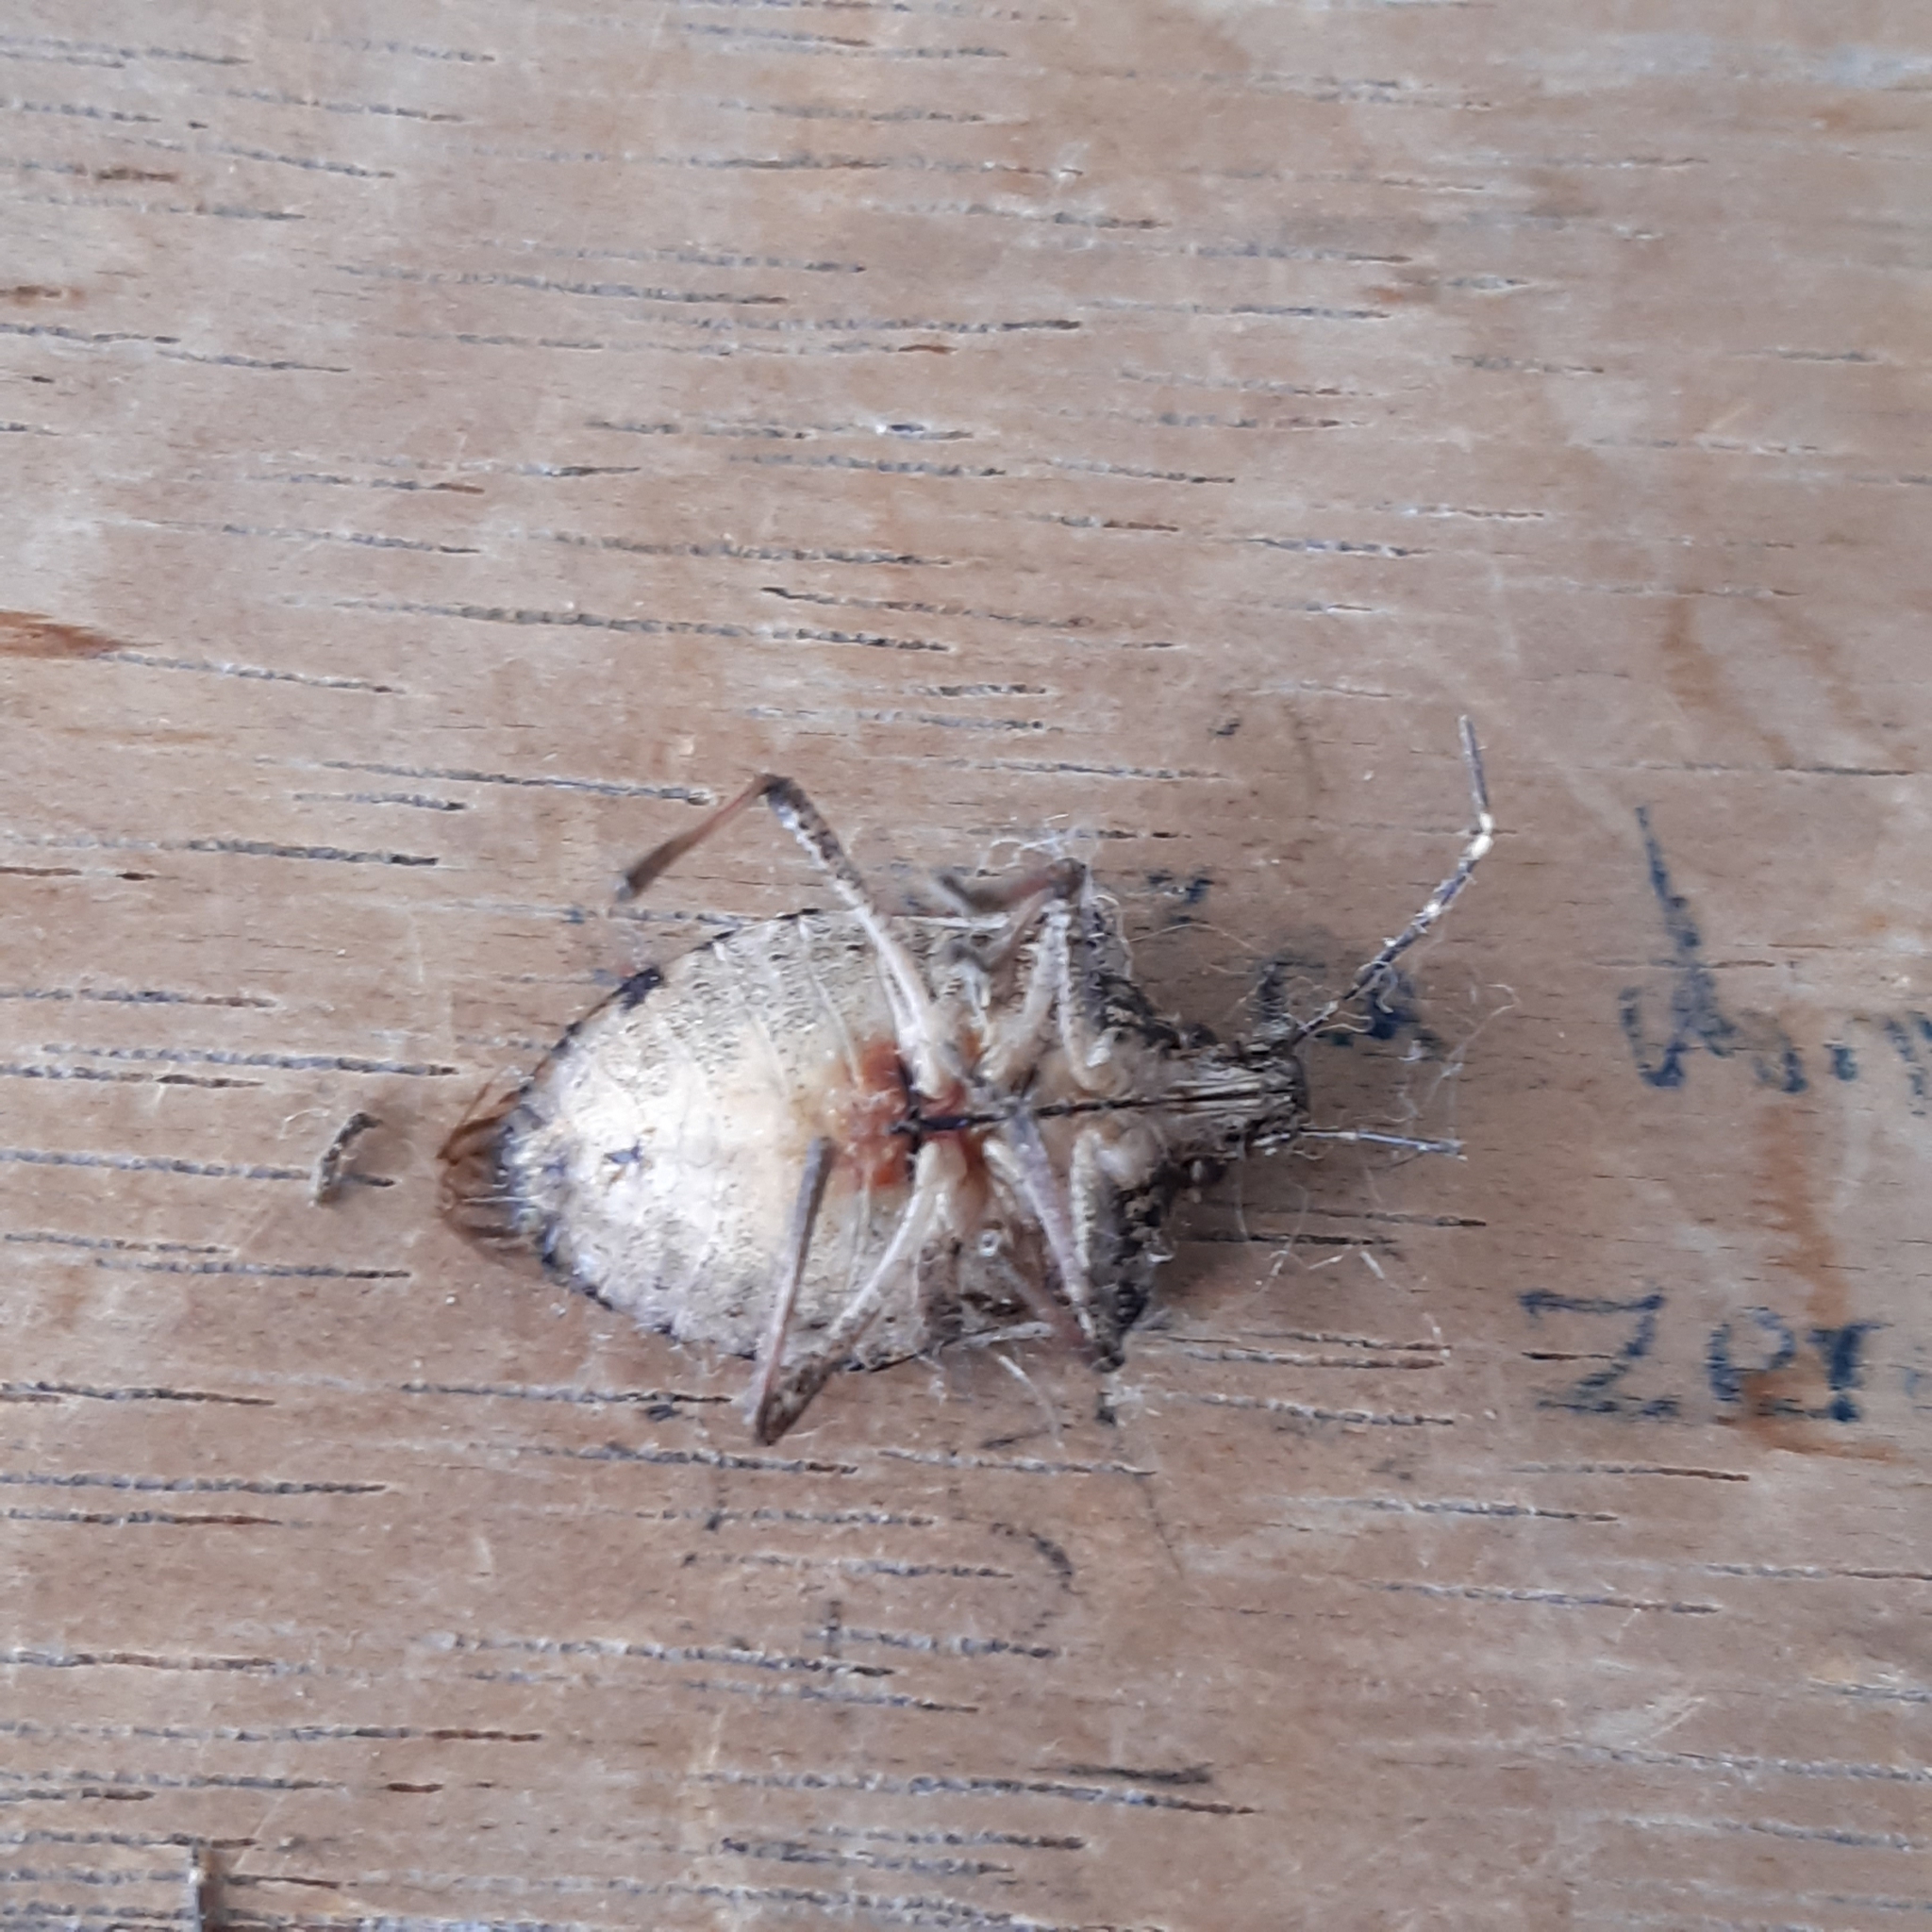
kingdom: Animalia
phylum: Arthropoda
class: Insecta
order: Hemiptera
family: Pentatomidae
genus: Halyomorpha
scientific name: Halyomorpha halys
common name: Brown marmorated stink bug
